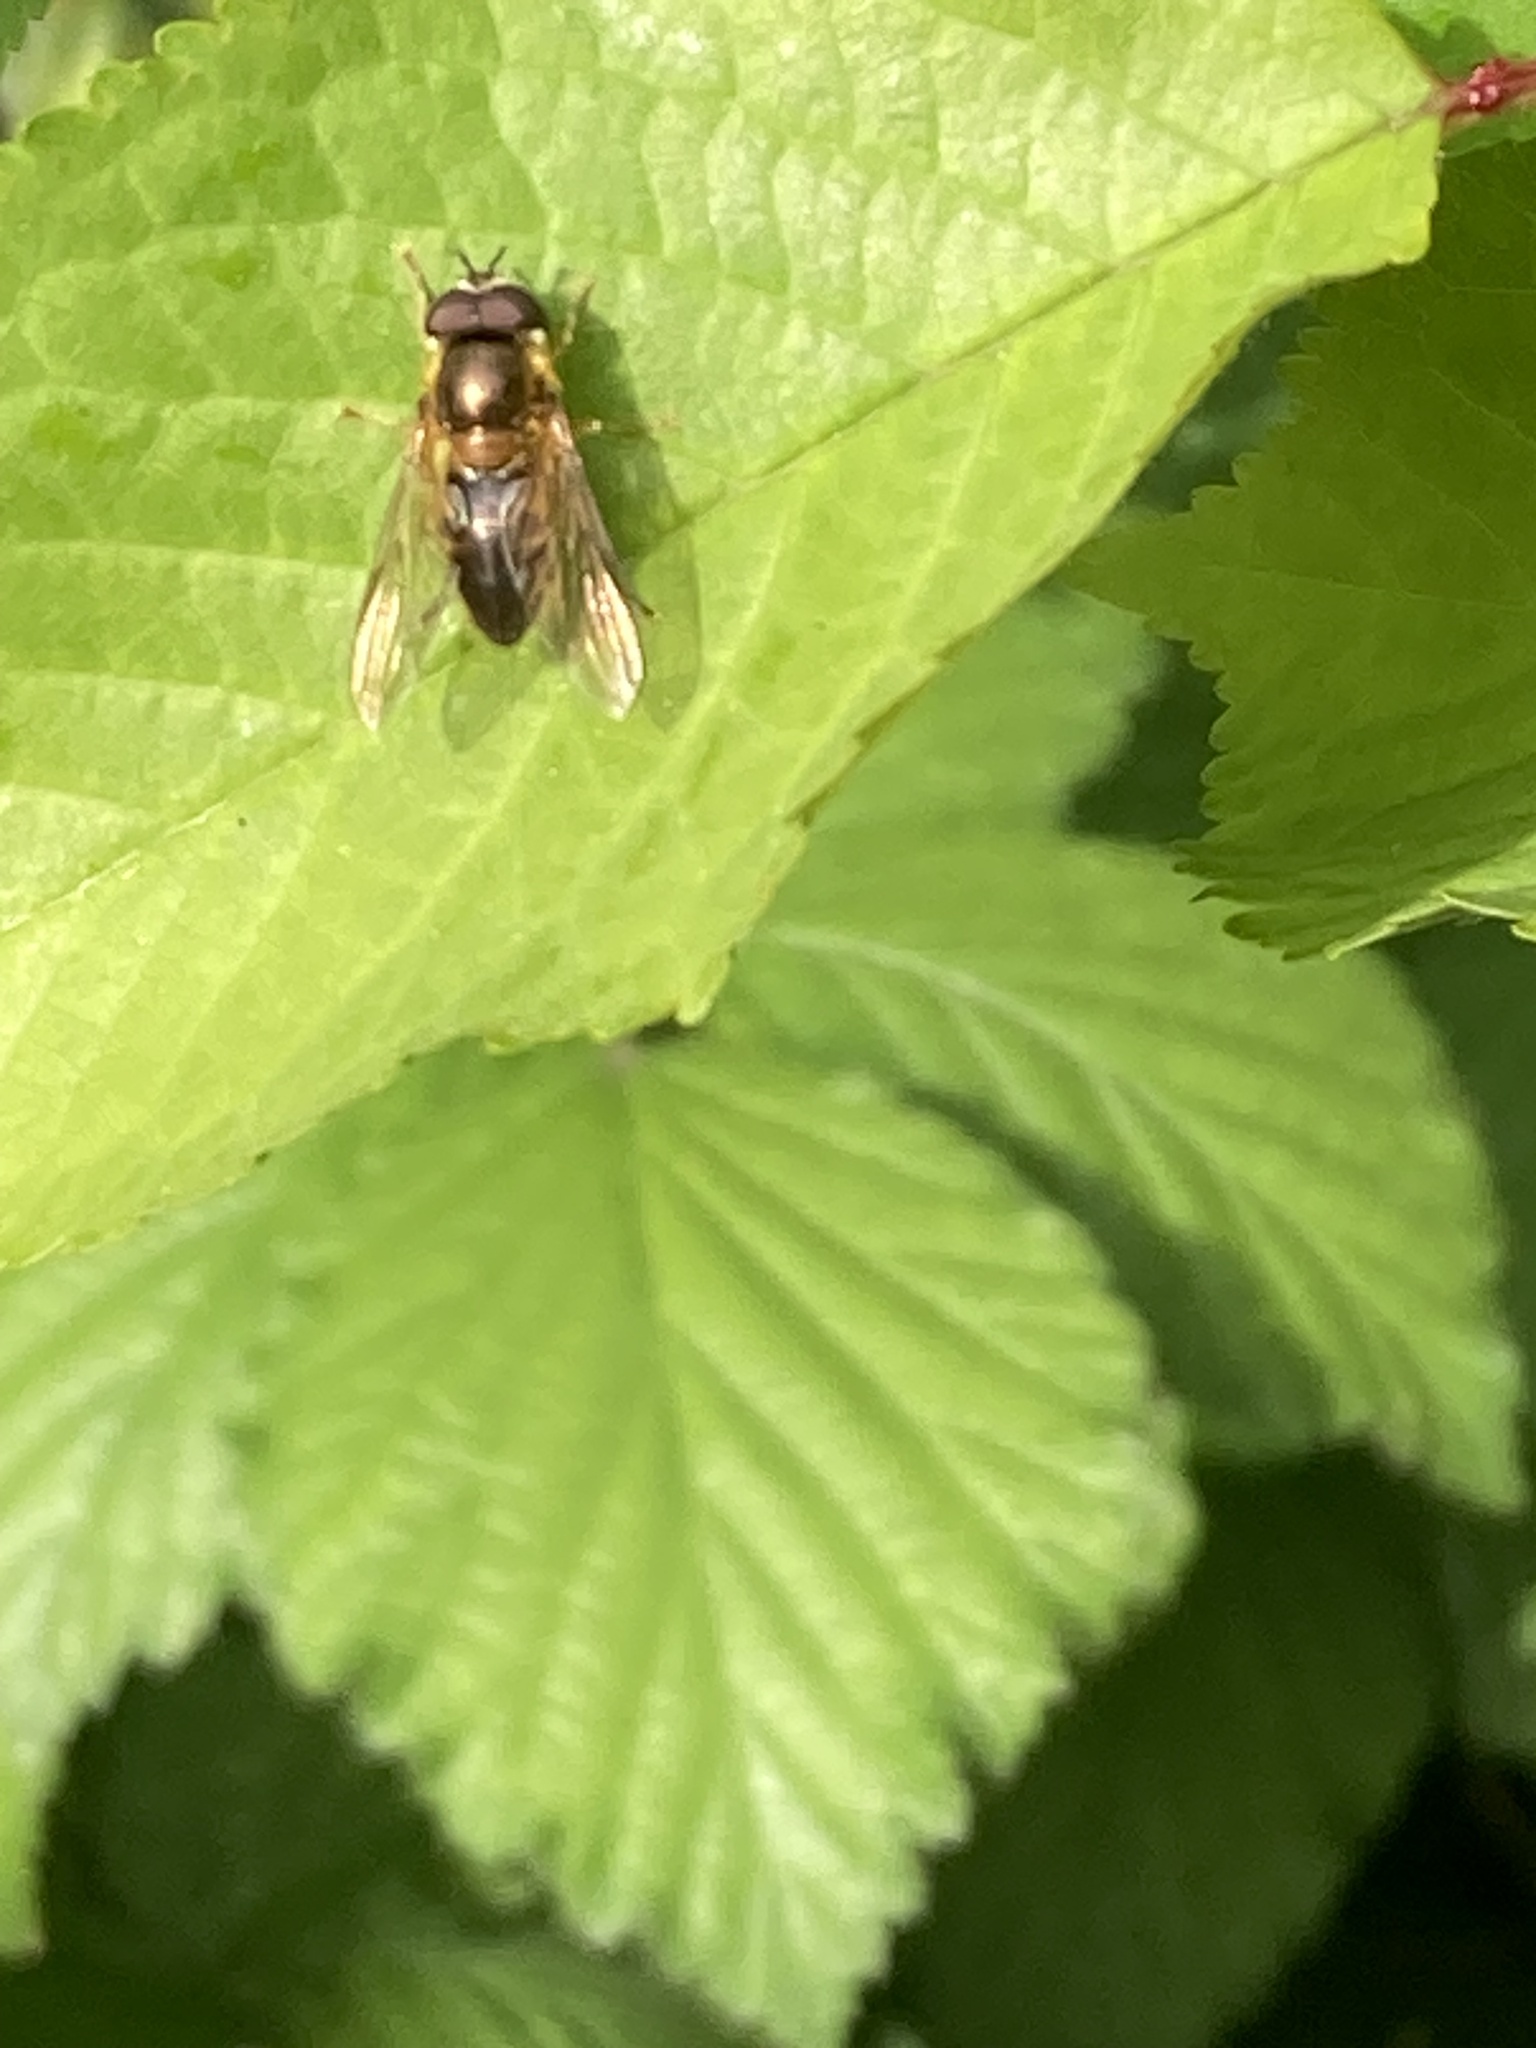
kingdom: Animalia
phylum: Arthropoda
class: Insecta
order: Diptera
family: Syrphidae
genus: Epistrophe
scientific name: Epistrophe eligans
